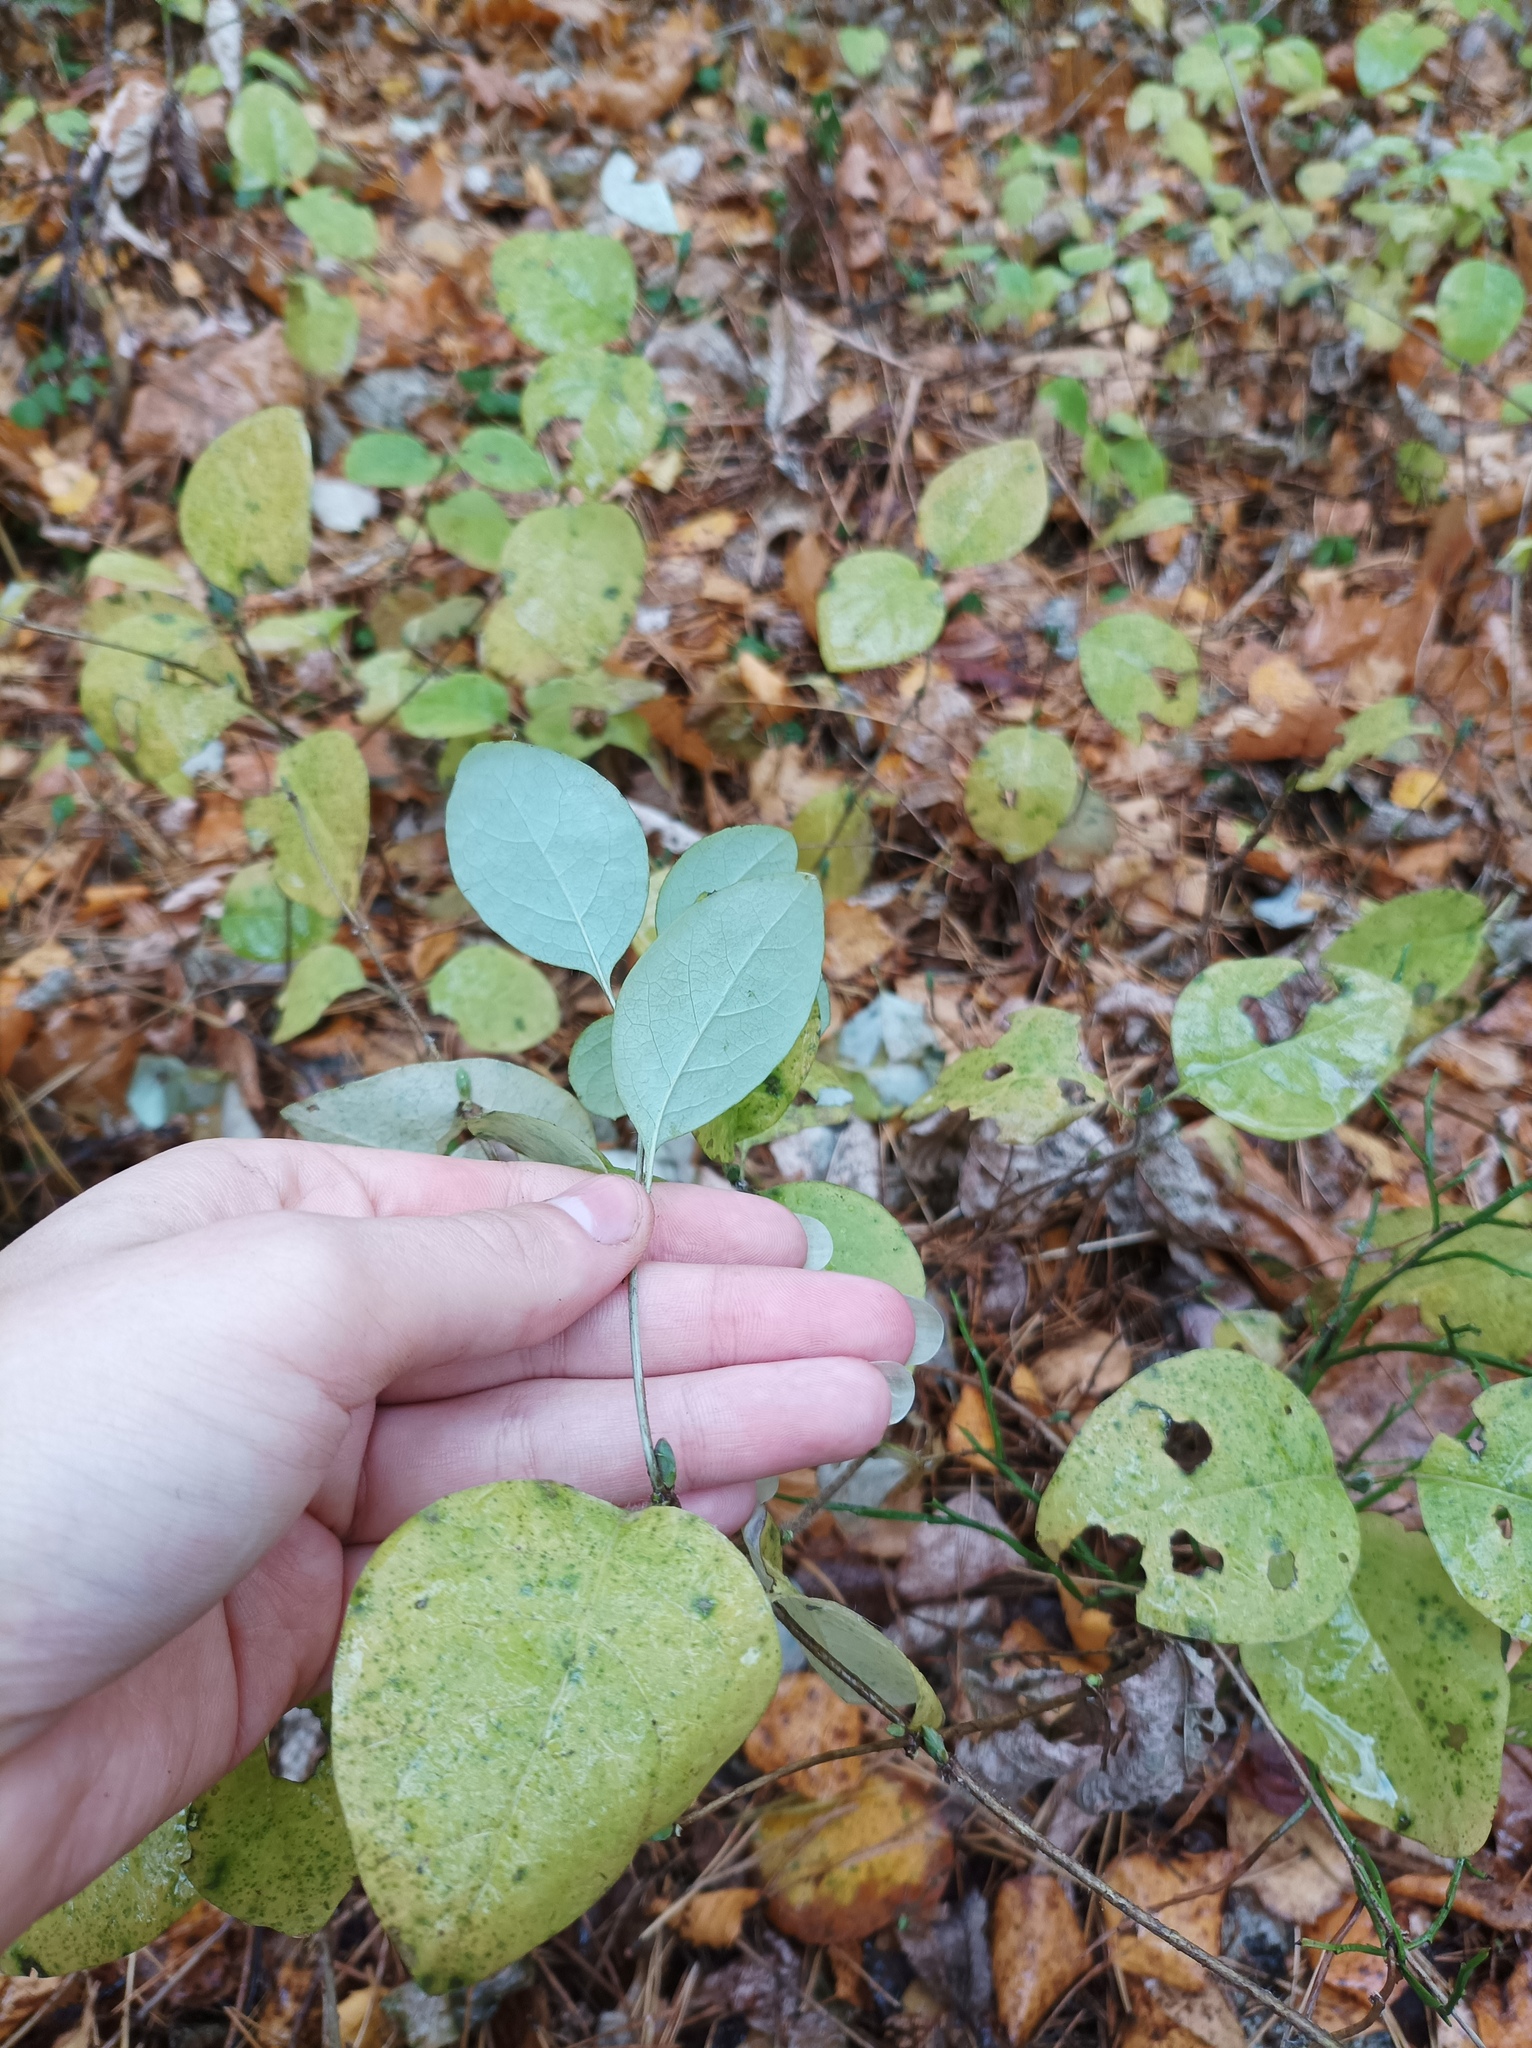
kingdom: Plantae
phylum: Tracheophyta
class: Magnoliopsida
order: Dipsacales
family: Caprifoliaceae
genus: Lonicera
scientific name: Lonicera caprifolium
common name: Perfoliate honeysuckle
